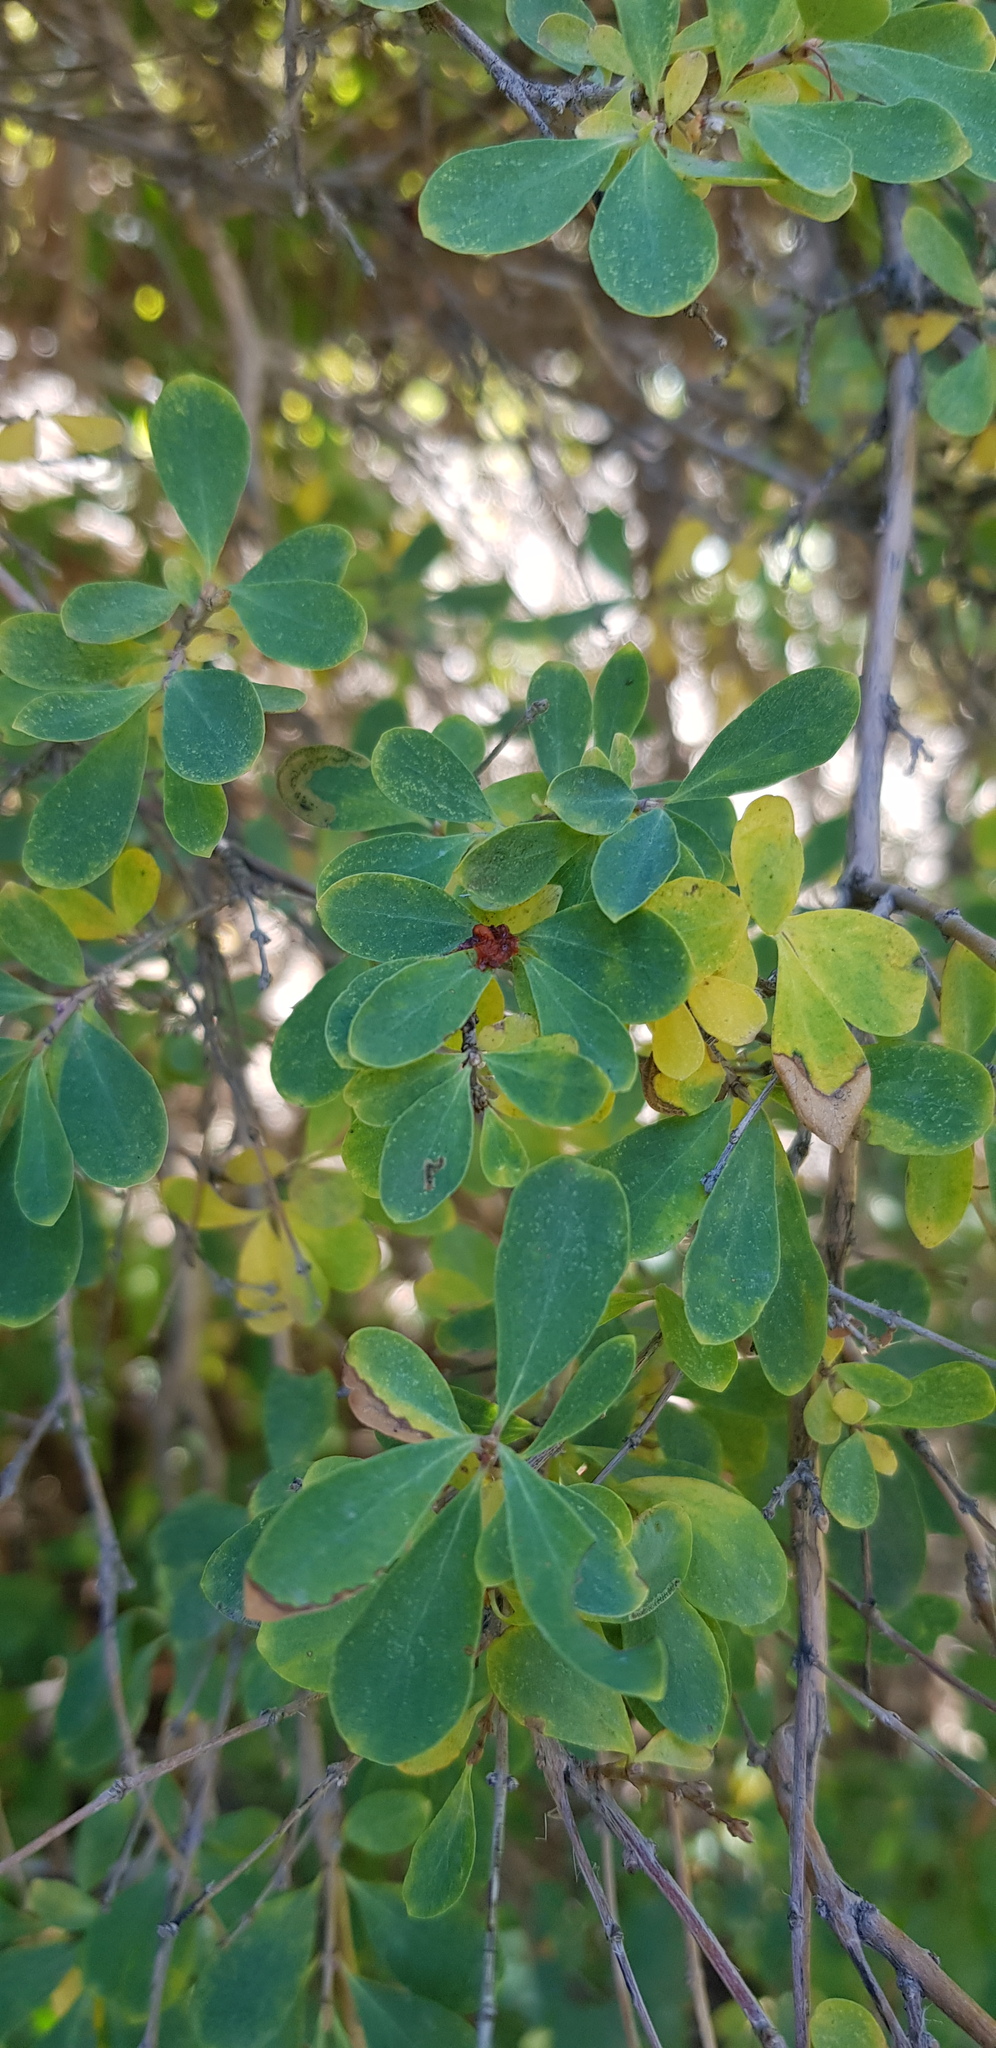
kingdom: Plantae
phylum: Tracheophyta
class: Magnoliopsida
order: Dipsacales
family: Caprifoliaceae
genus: Lonicera
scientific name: Lonicera microphylla
